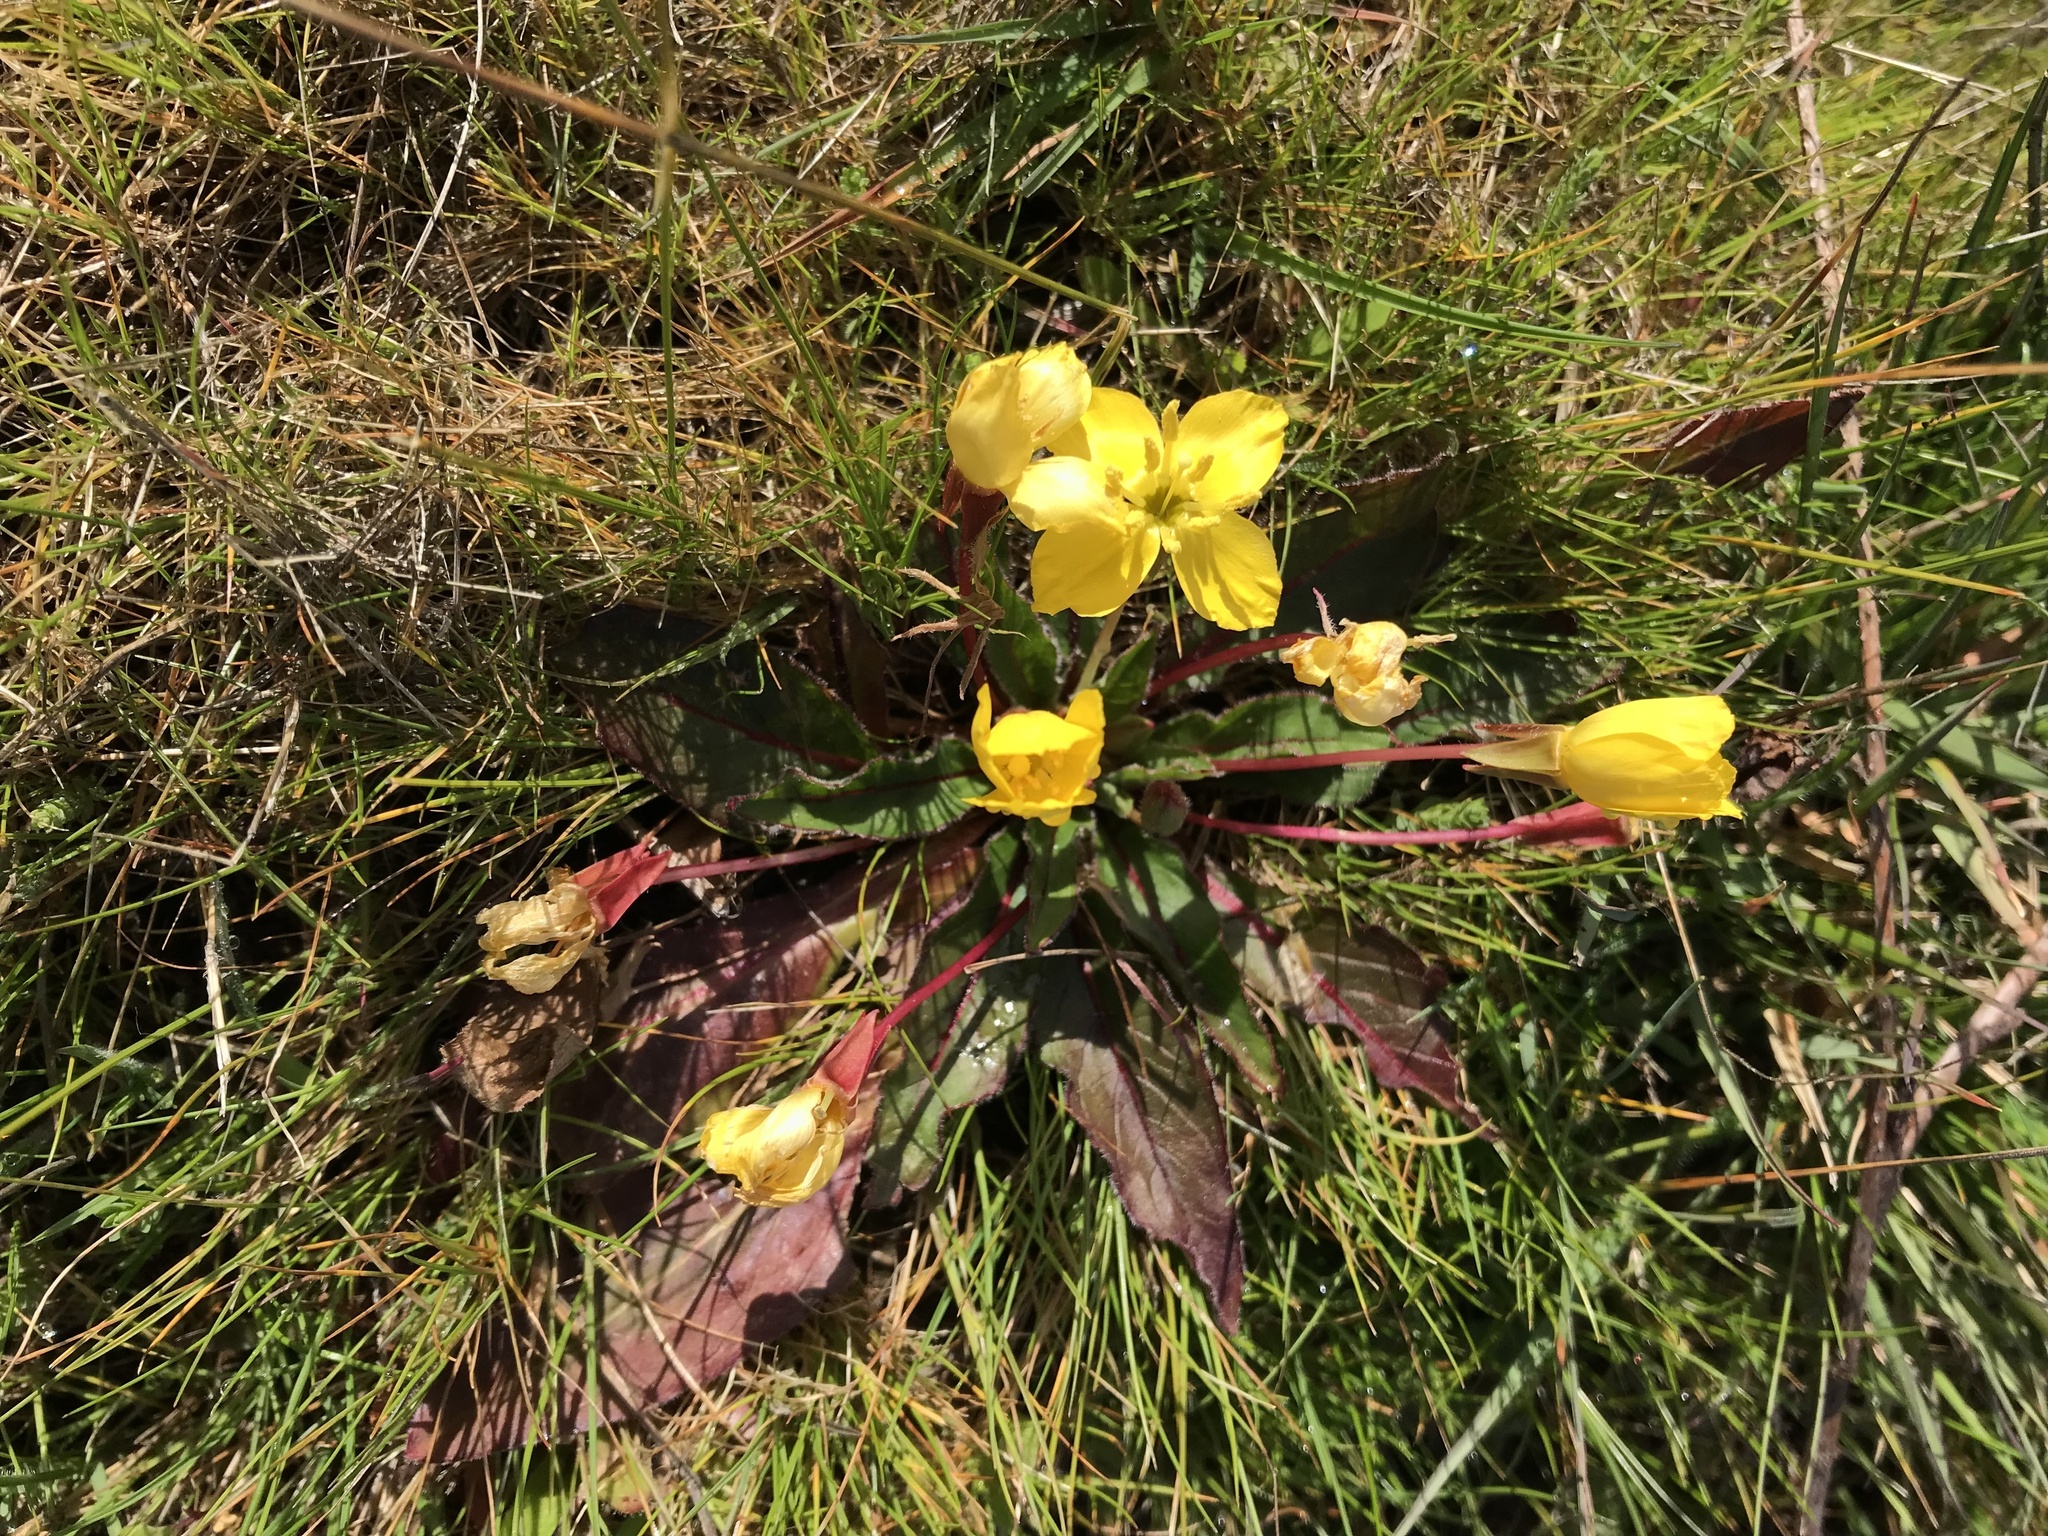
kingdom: Plantae
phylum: Tracheophyta
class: Magnoliopsida
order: Myrtales
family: Onagraceae
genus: Taraxia
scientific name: Taraxia ovata
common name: Goldeneggs
